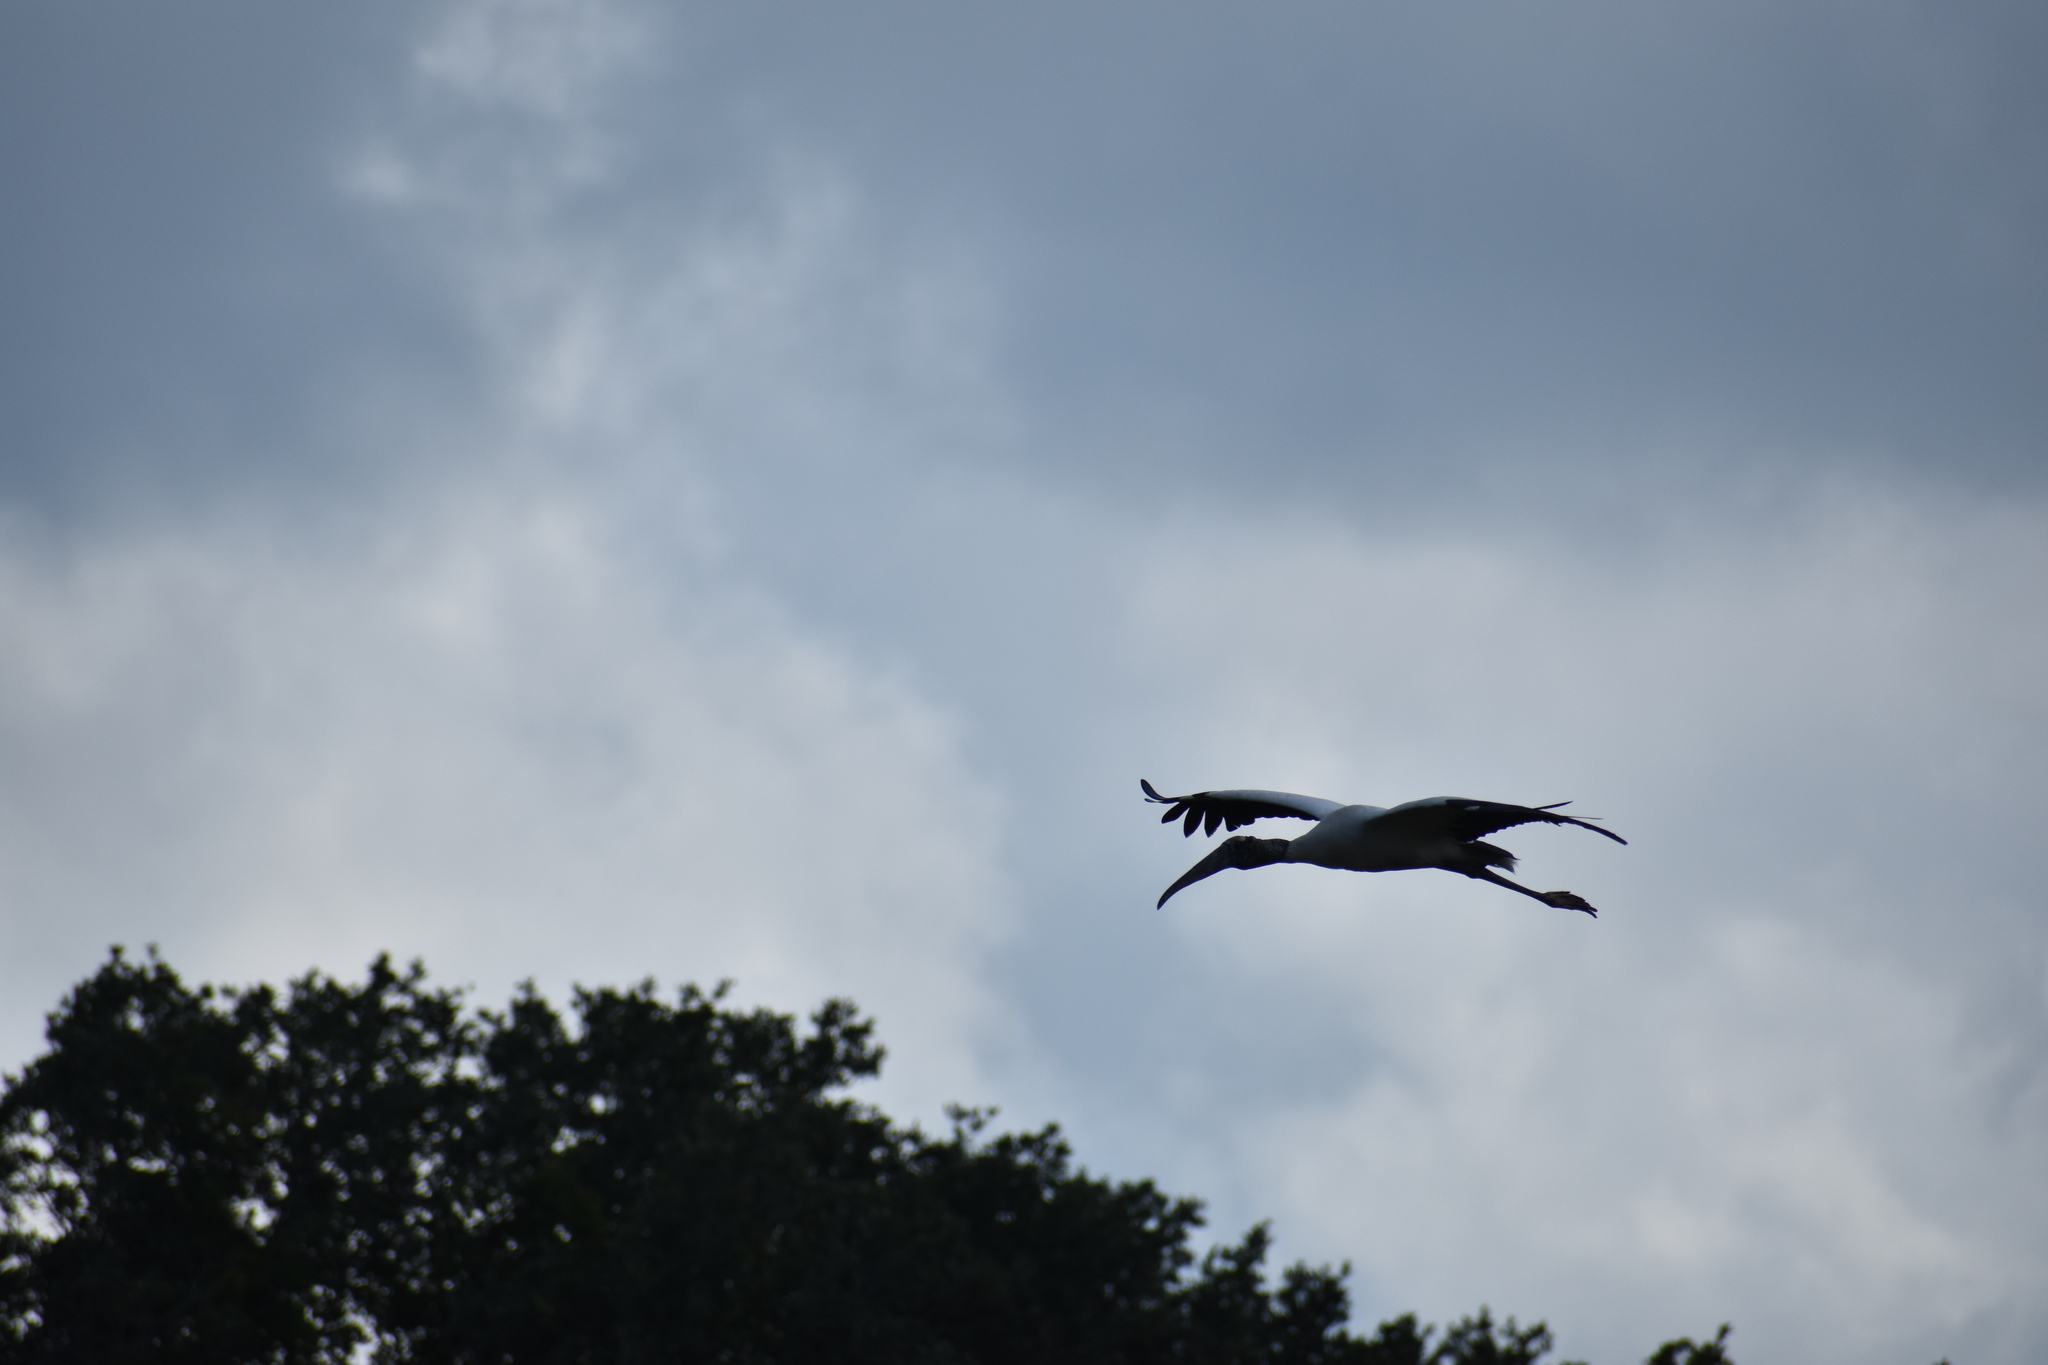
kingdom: Animalia
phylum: Chordata
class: Aves
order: Ciconiiformes
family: Ciconiidae
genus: Mycteria
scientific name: Mycteria americana
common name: Wood stork
